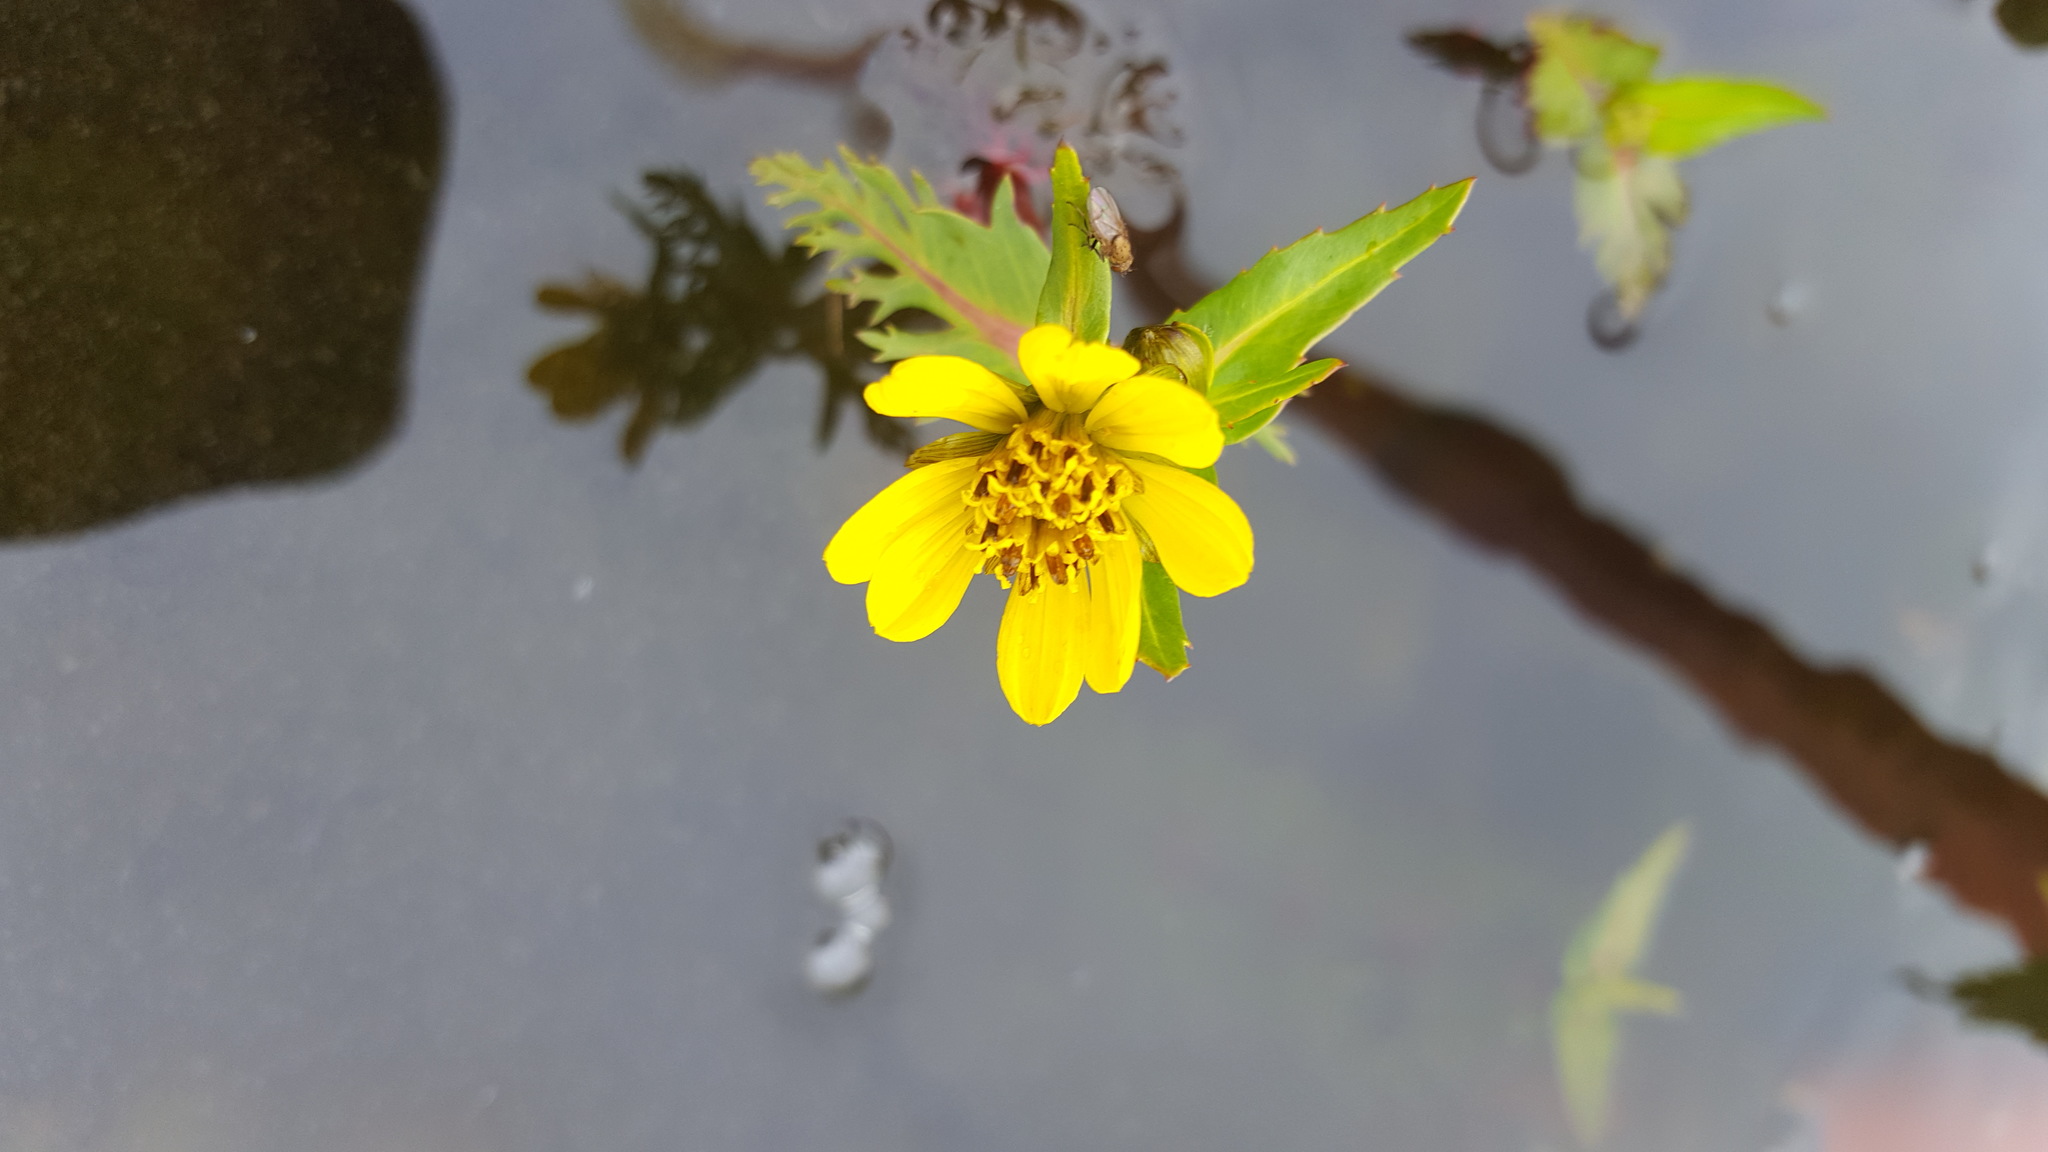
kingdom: Plantae
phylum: Tracheophyta
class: Magnoliopsida
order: Asterales
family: Asteraceae
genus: Bidens
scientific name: Bidens beckii
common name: Beck's beggarticks
